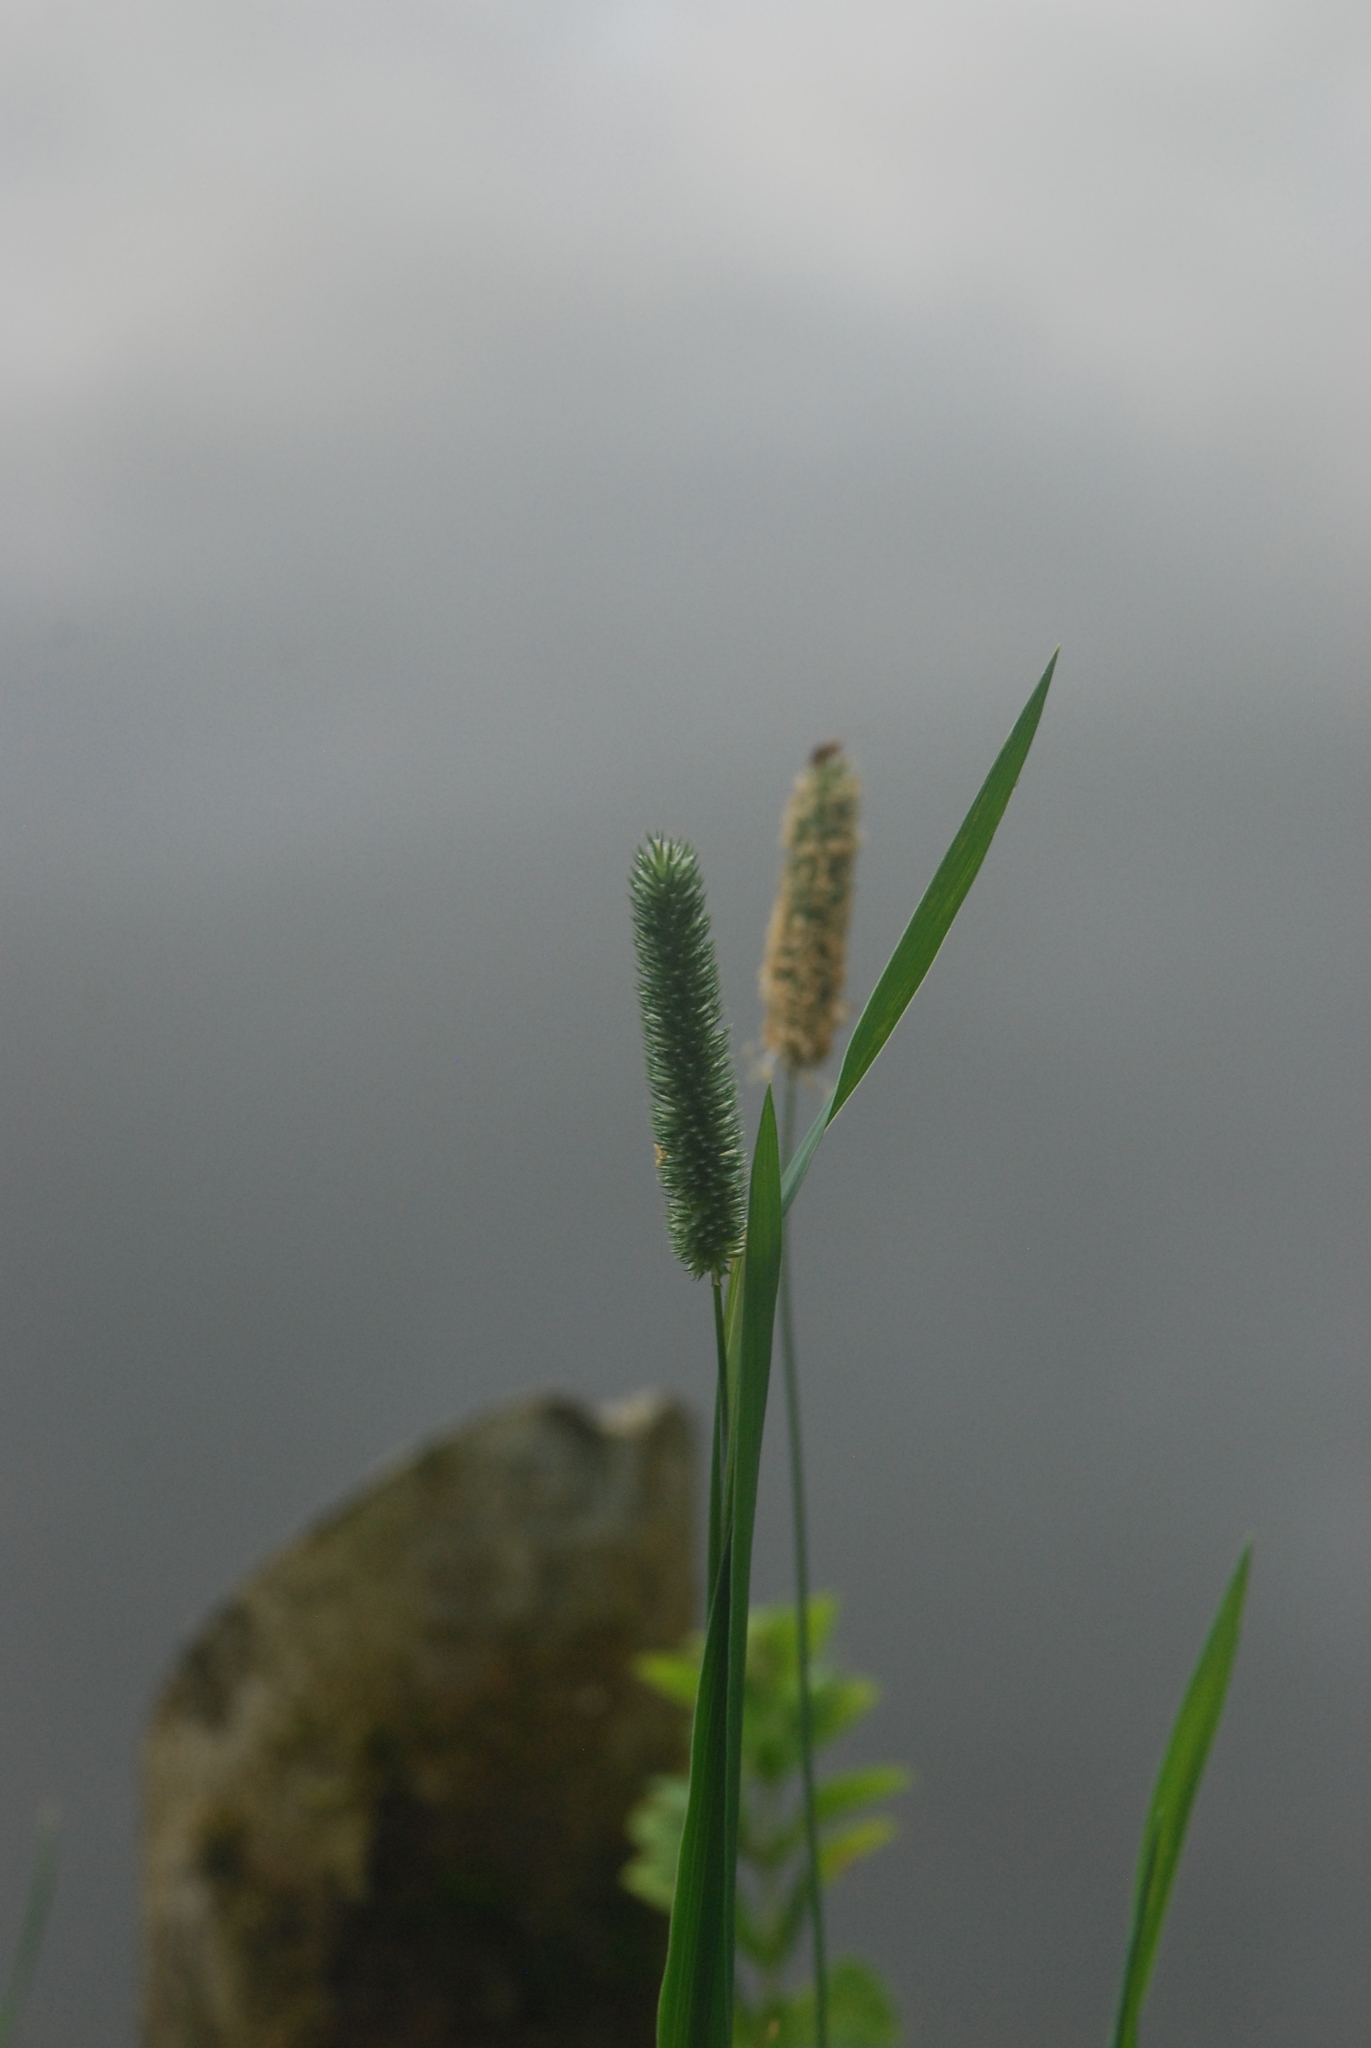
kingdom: Plantae
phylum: Tracheophyta
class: Liliopsida
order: Poales
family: Poaceae
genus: Phleum
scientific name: Phleum pratense
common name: Timothy grass
